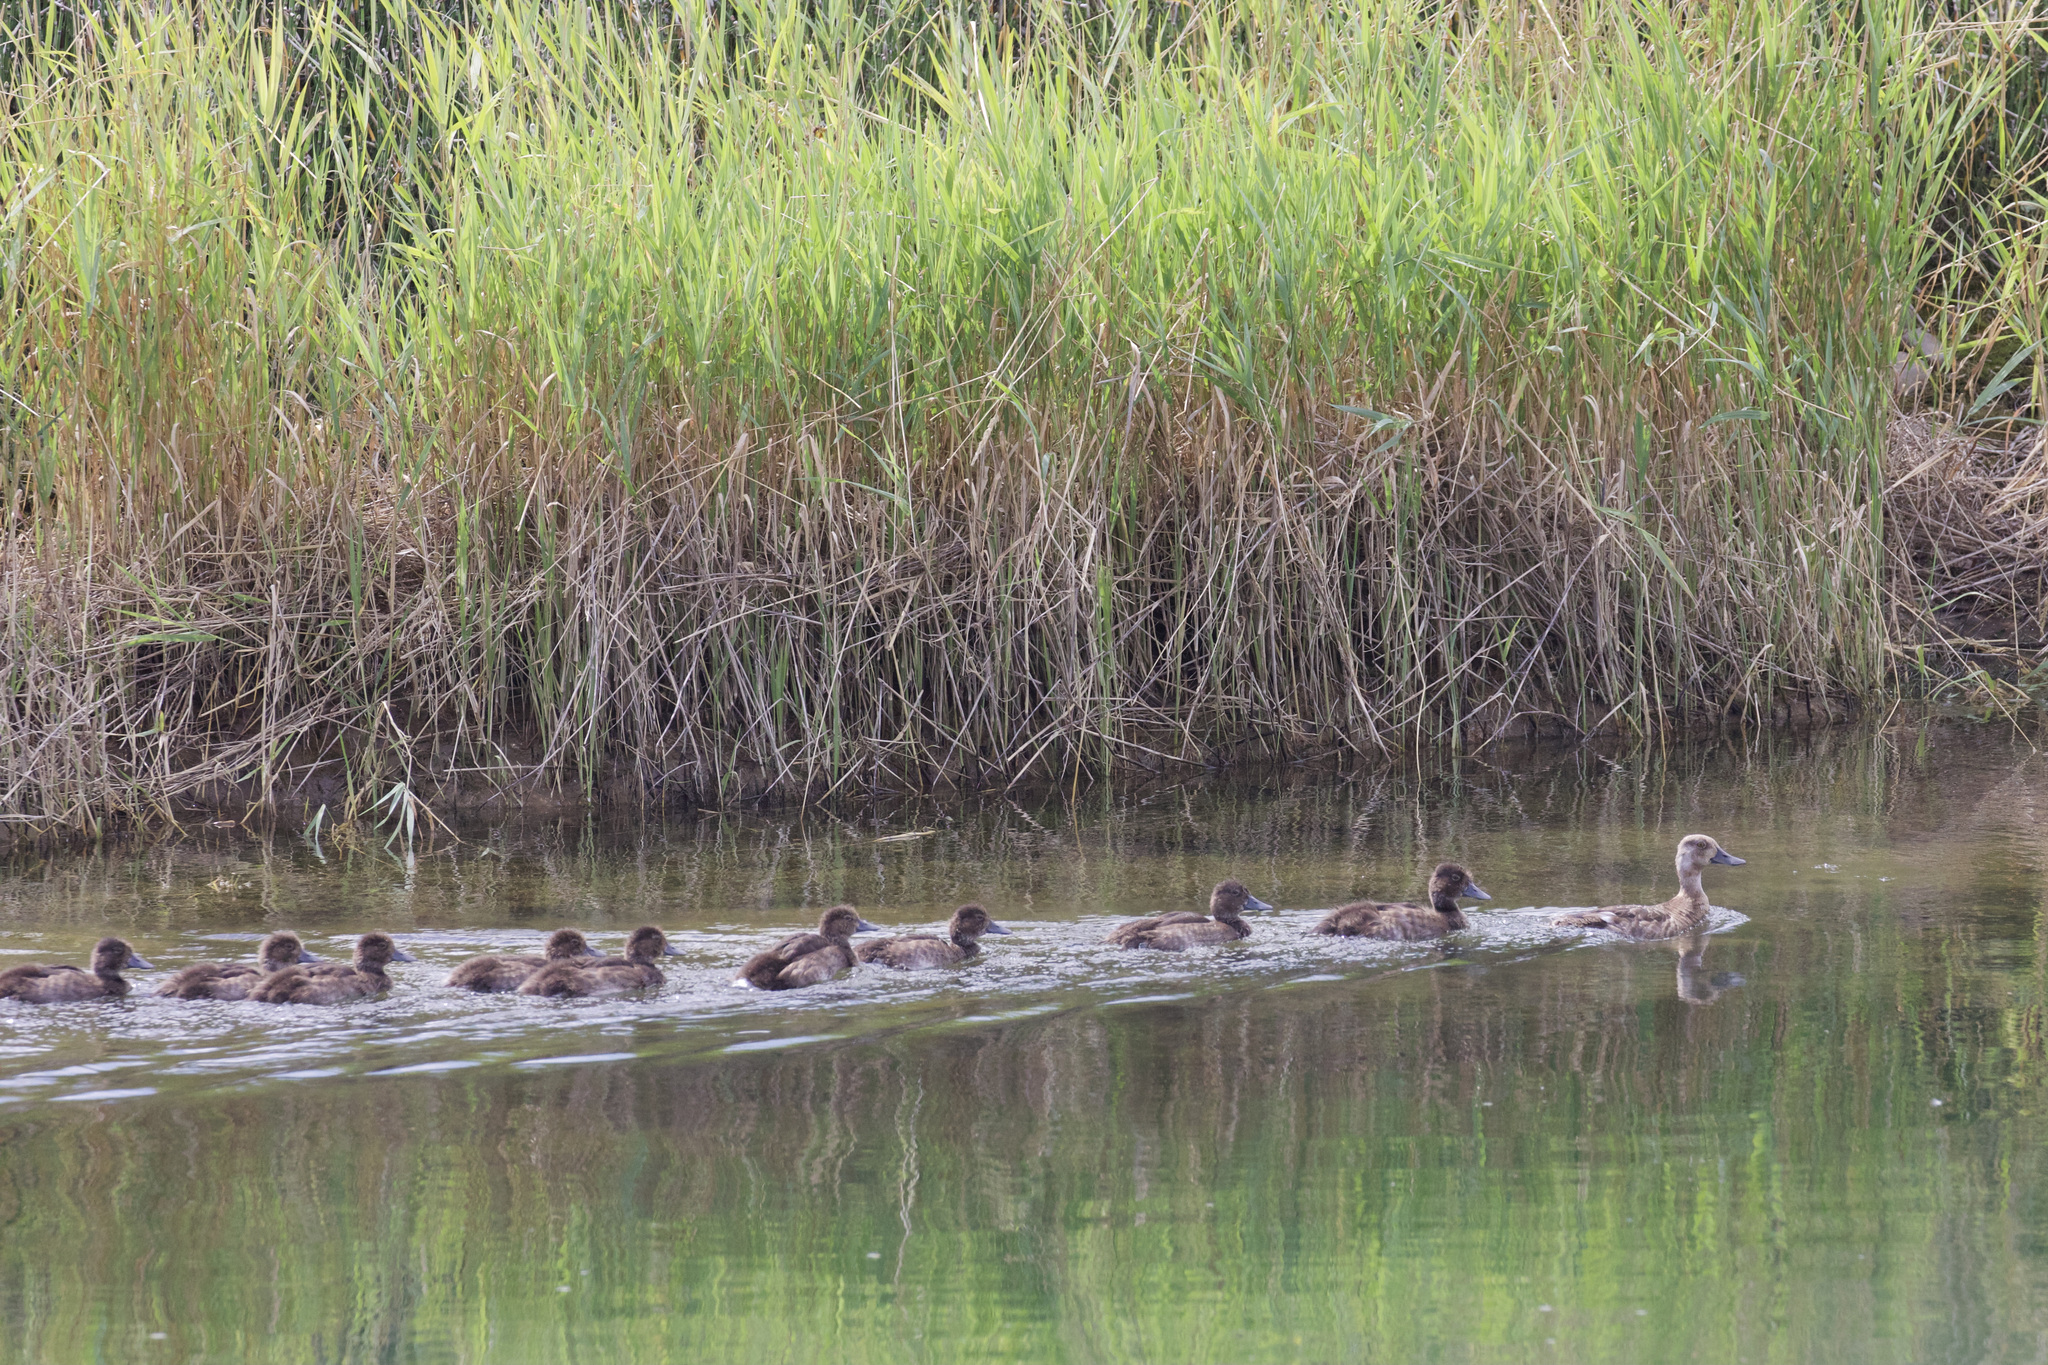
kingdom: Animalia
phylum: Chordata
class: Aves
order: Anseriformes
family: Anatidae
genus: Aythya
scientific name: Aythya americana
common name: Redhead
